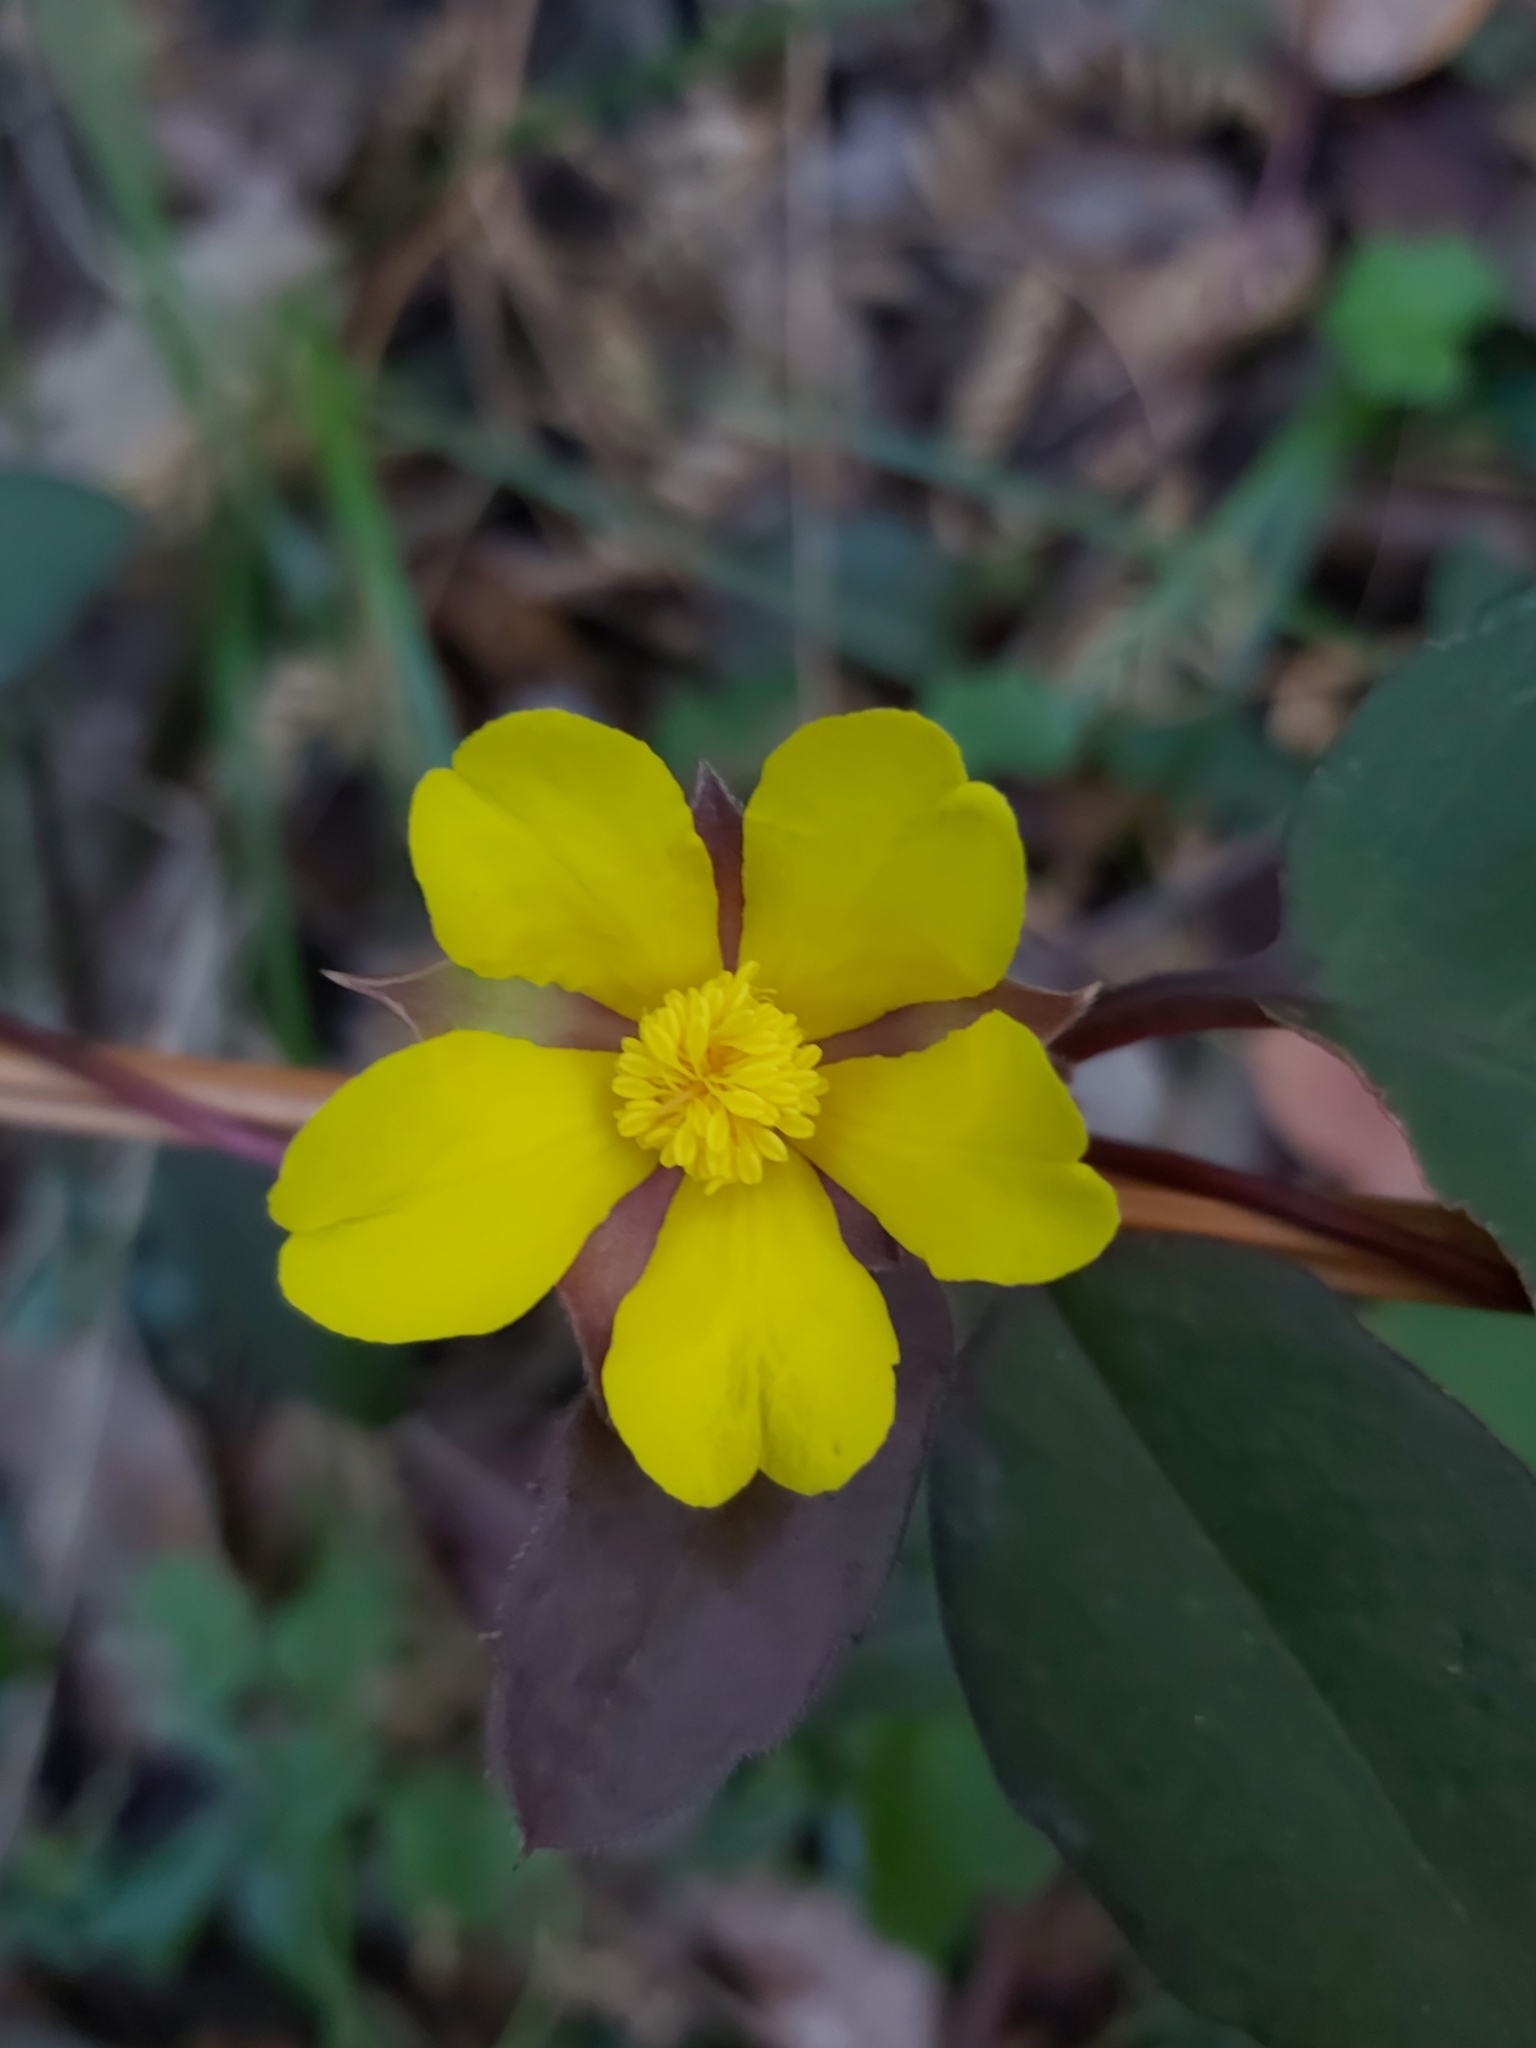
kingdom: Plantae
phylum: Tracheophyta
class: Magnoliopsida
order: Dilleniales
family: Dilleniaceae
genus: Hibbertia
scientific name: Hibbertia dentata
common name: Trailing guinea-flower
